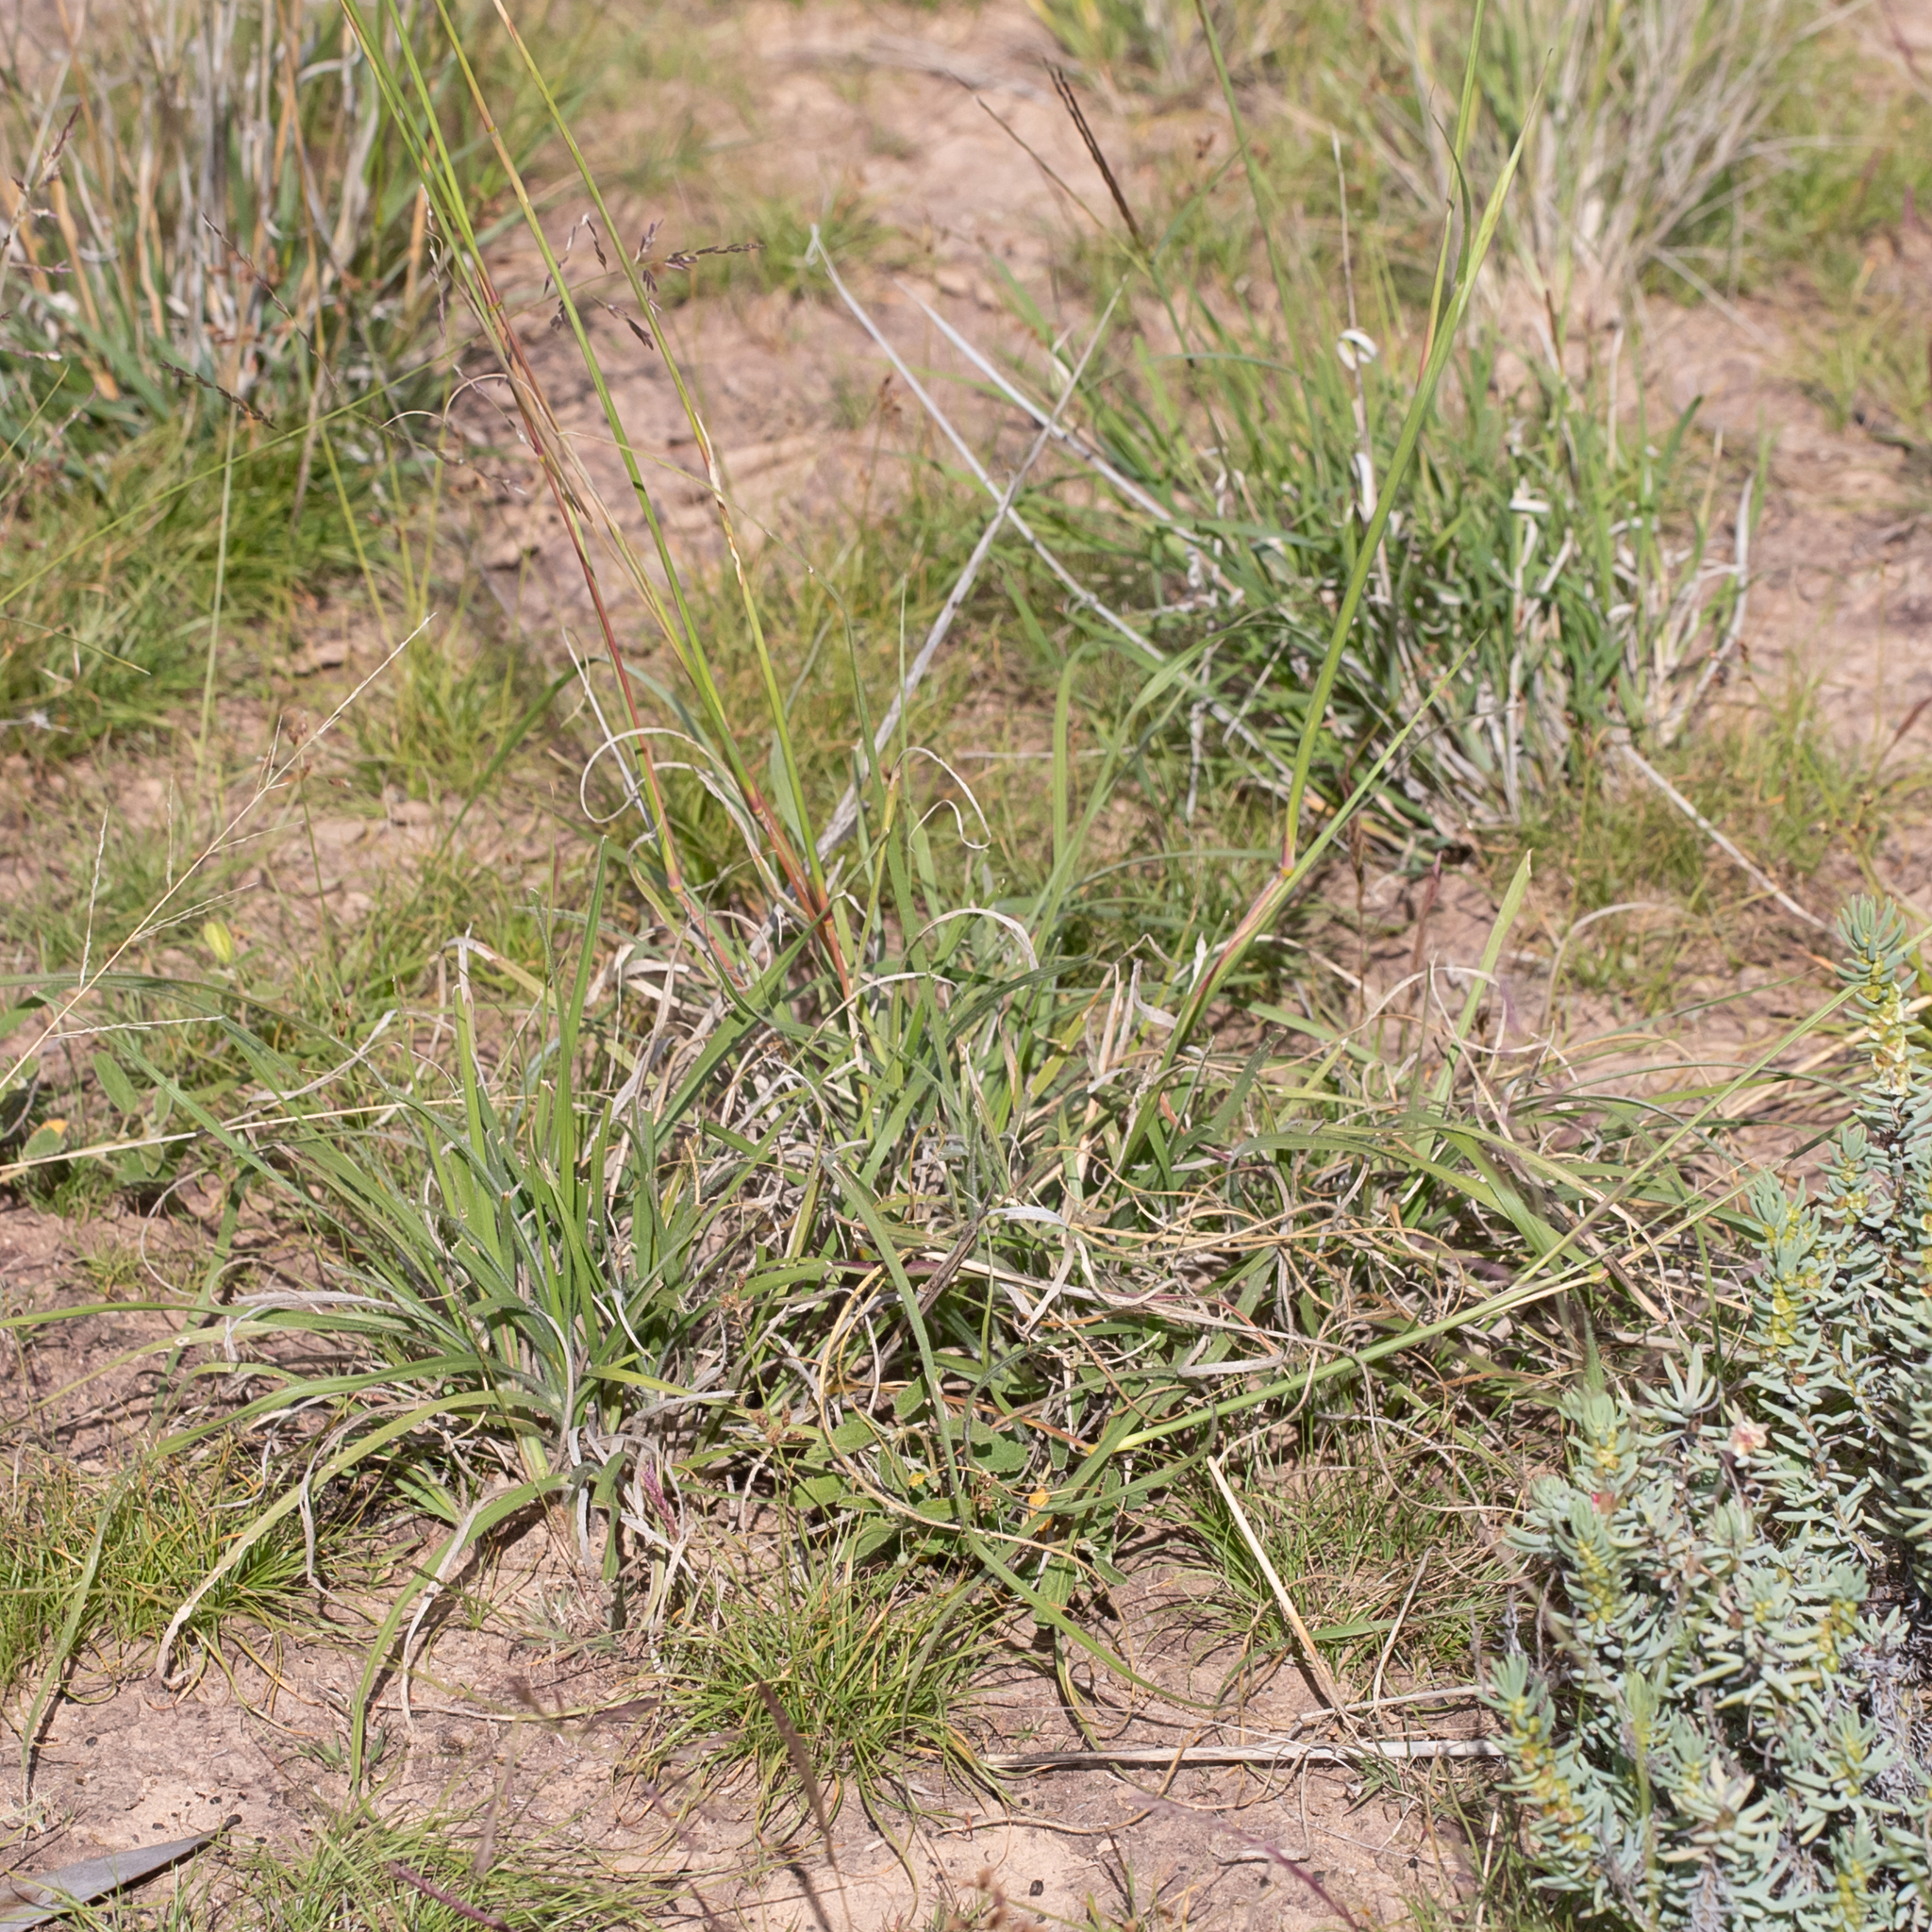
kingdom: Plantae
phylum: Tracheophyta
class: Liliopsida
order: Poales
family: Poaceae
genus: Chrysopogon
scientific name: Chrysopogon fallax
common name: Golden beard grass
